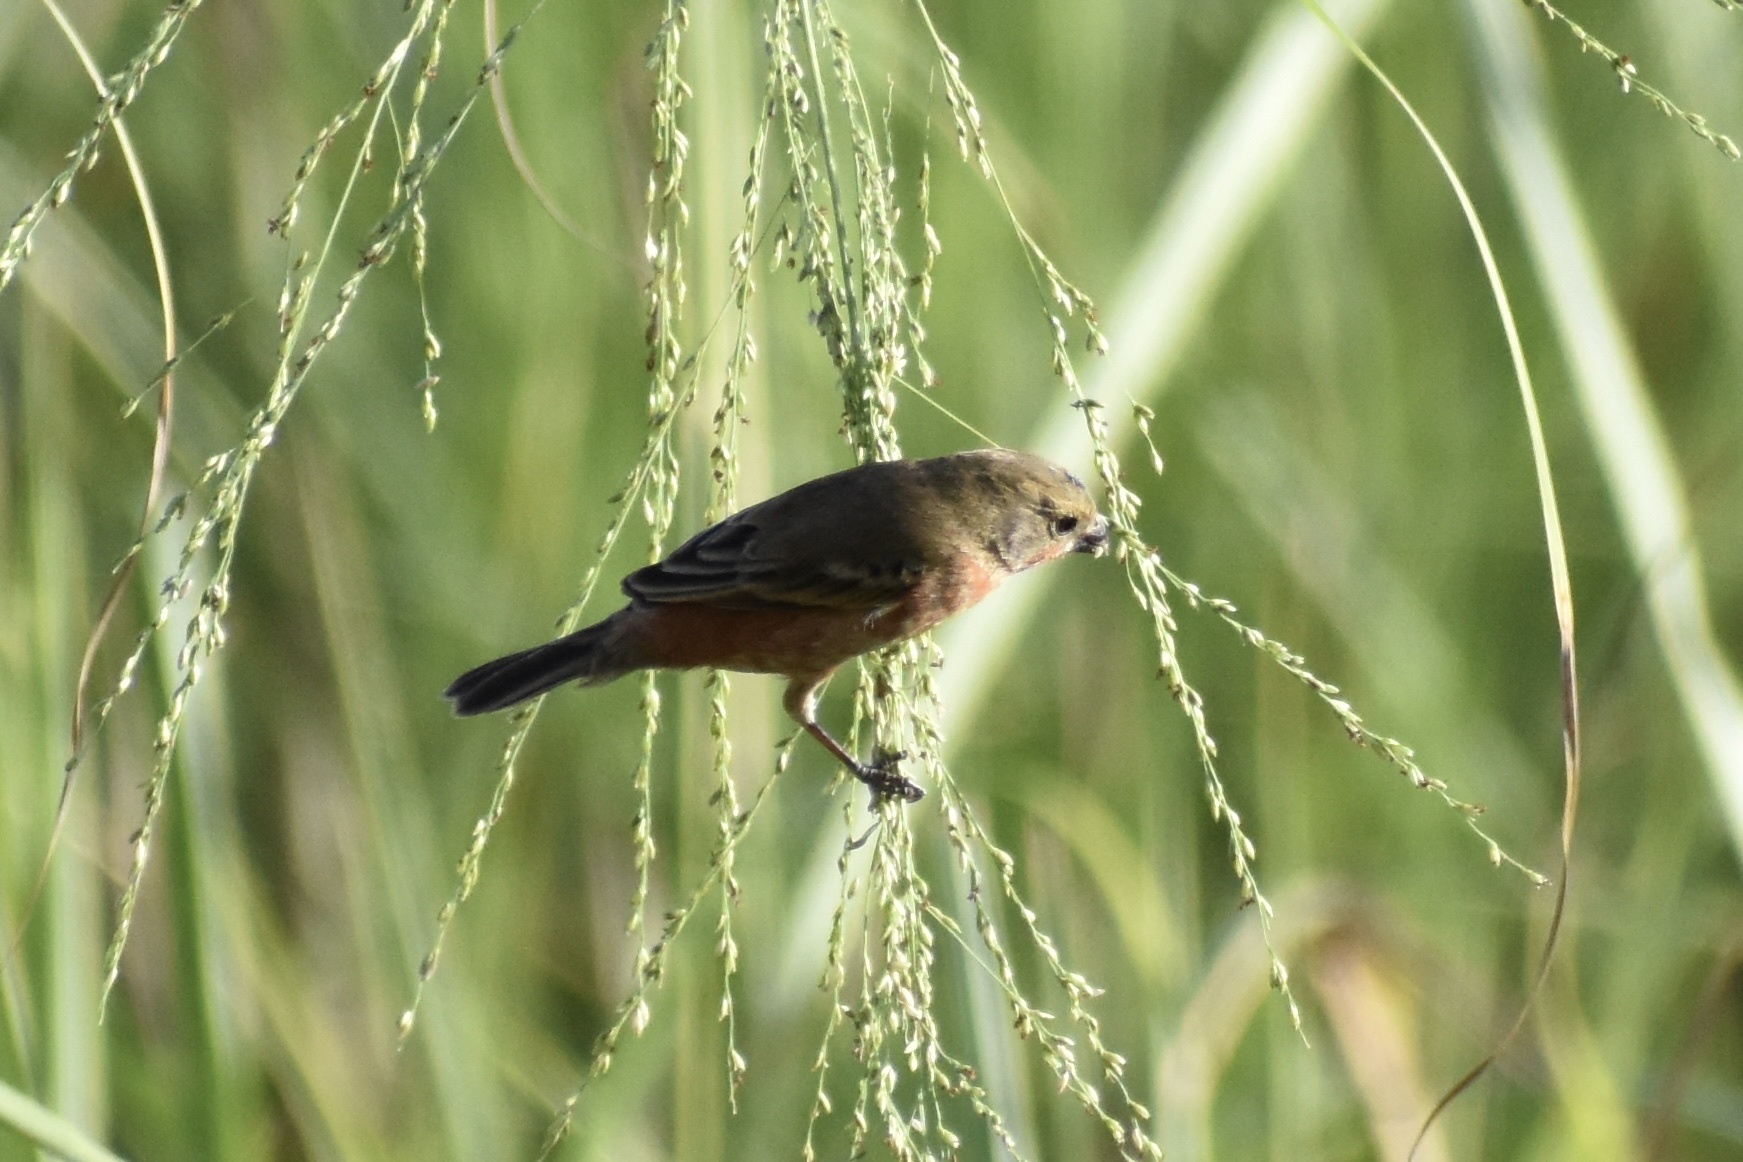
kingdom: Animalia
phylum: Chordata
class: Aves
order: Passeriformes
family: Thraupidae
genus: Sporophila
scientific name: Sporophila minuta
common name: Ruddy-breasted seedeater
